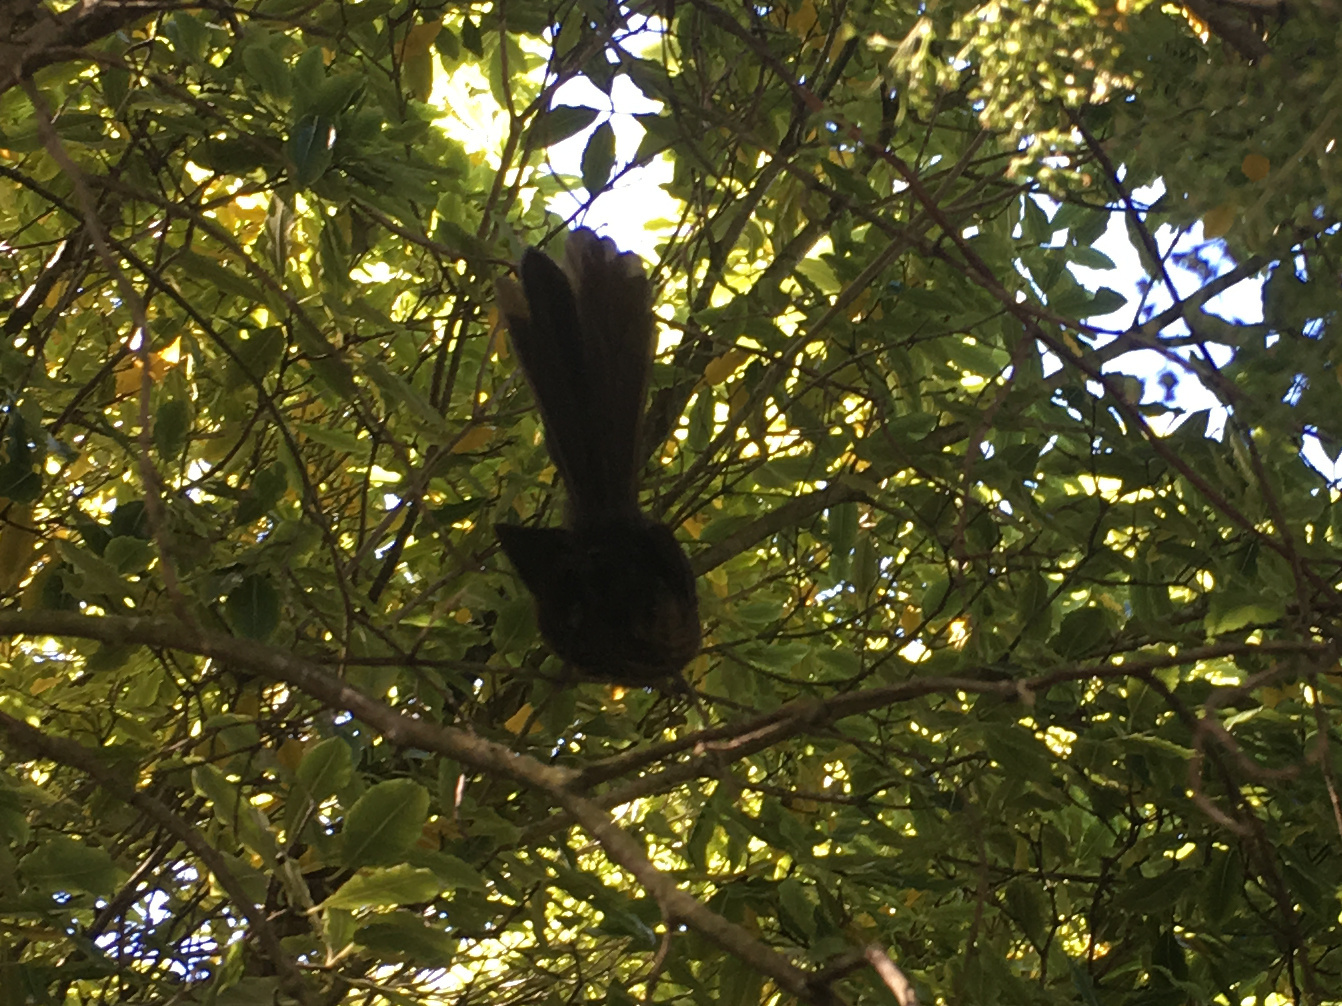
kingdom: Animalia
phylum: Chordata
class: Aves
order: Passeriformes
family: Rhipiduridae
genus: Rhipidura
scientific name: Rhipidura fuliginosa
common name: New zealand fantail
